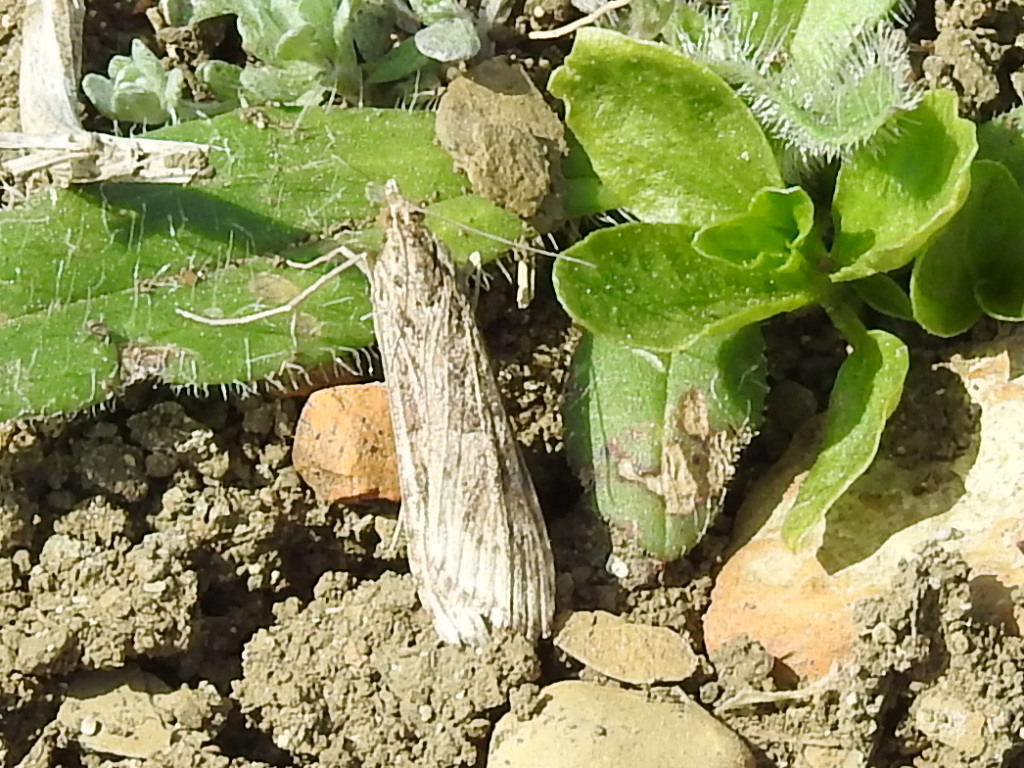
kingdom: Animalia
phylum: Arthropoda
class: Insecta
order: Lepidoptera
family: Crambidae
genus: Nomophila
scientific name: Nomophila nearctica
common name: American rush veneer
